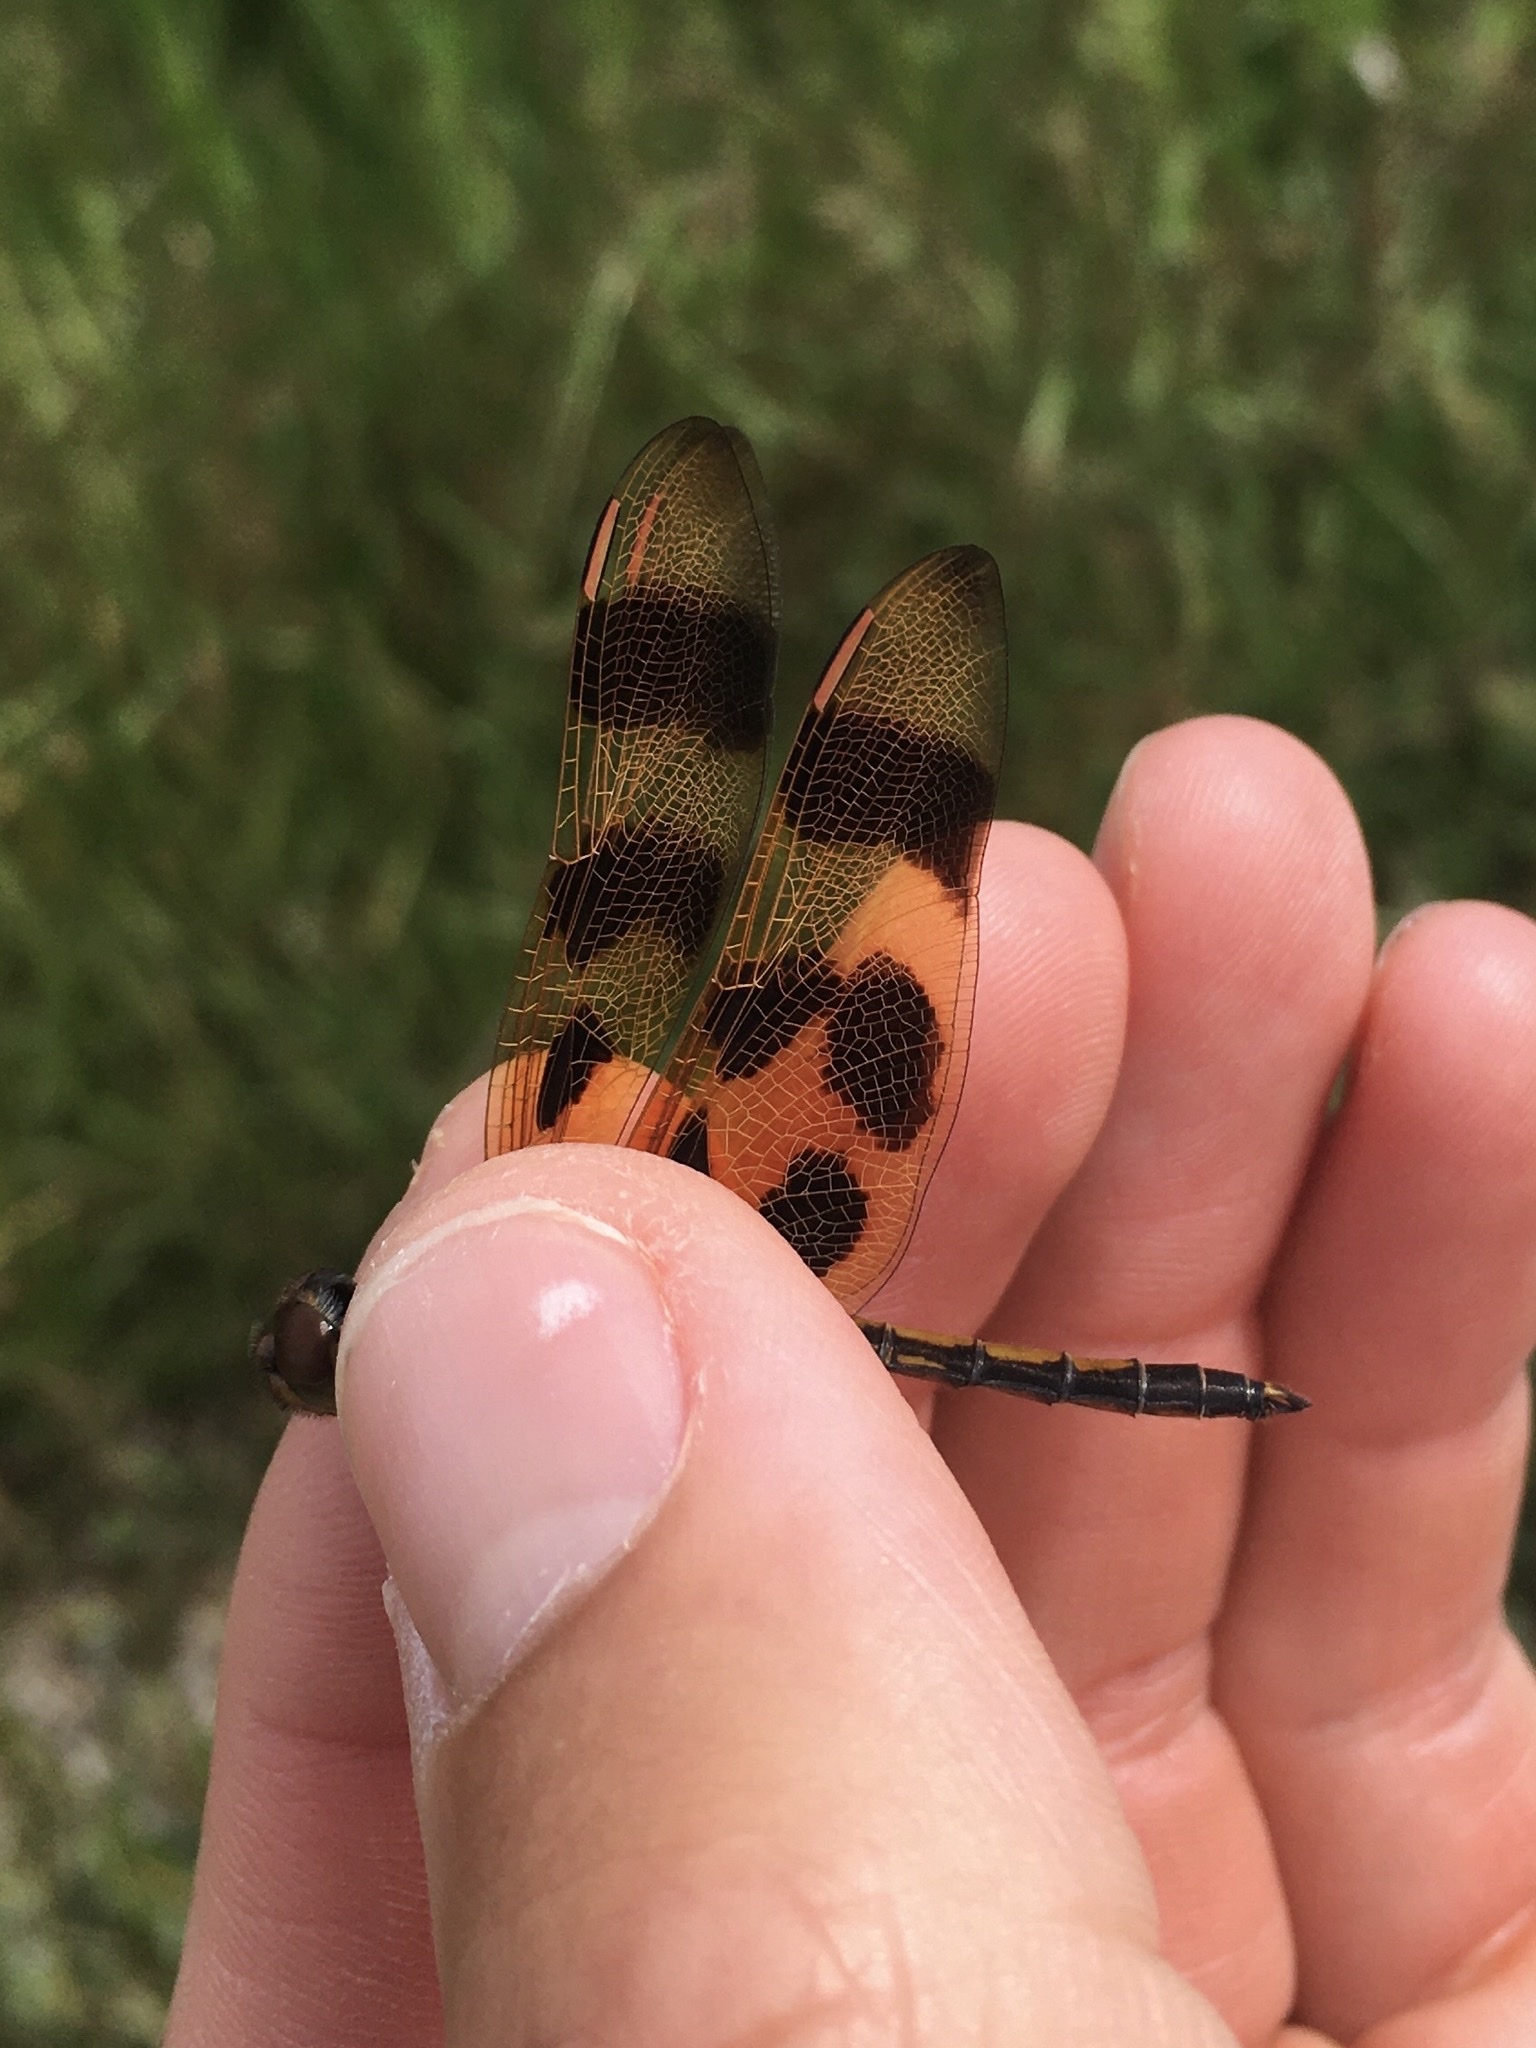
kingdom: Animalia
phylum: Arthropoda
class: Insecta
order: Odonata
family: Libellulidae
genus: Celithemis
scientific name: Celithemis eponina
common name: Halloween pennant
